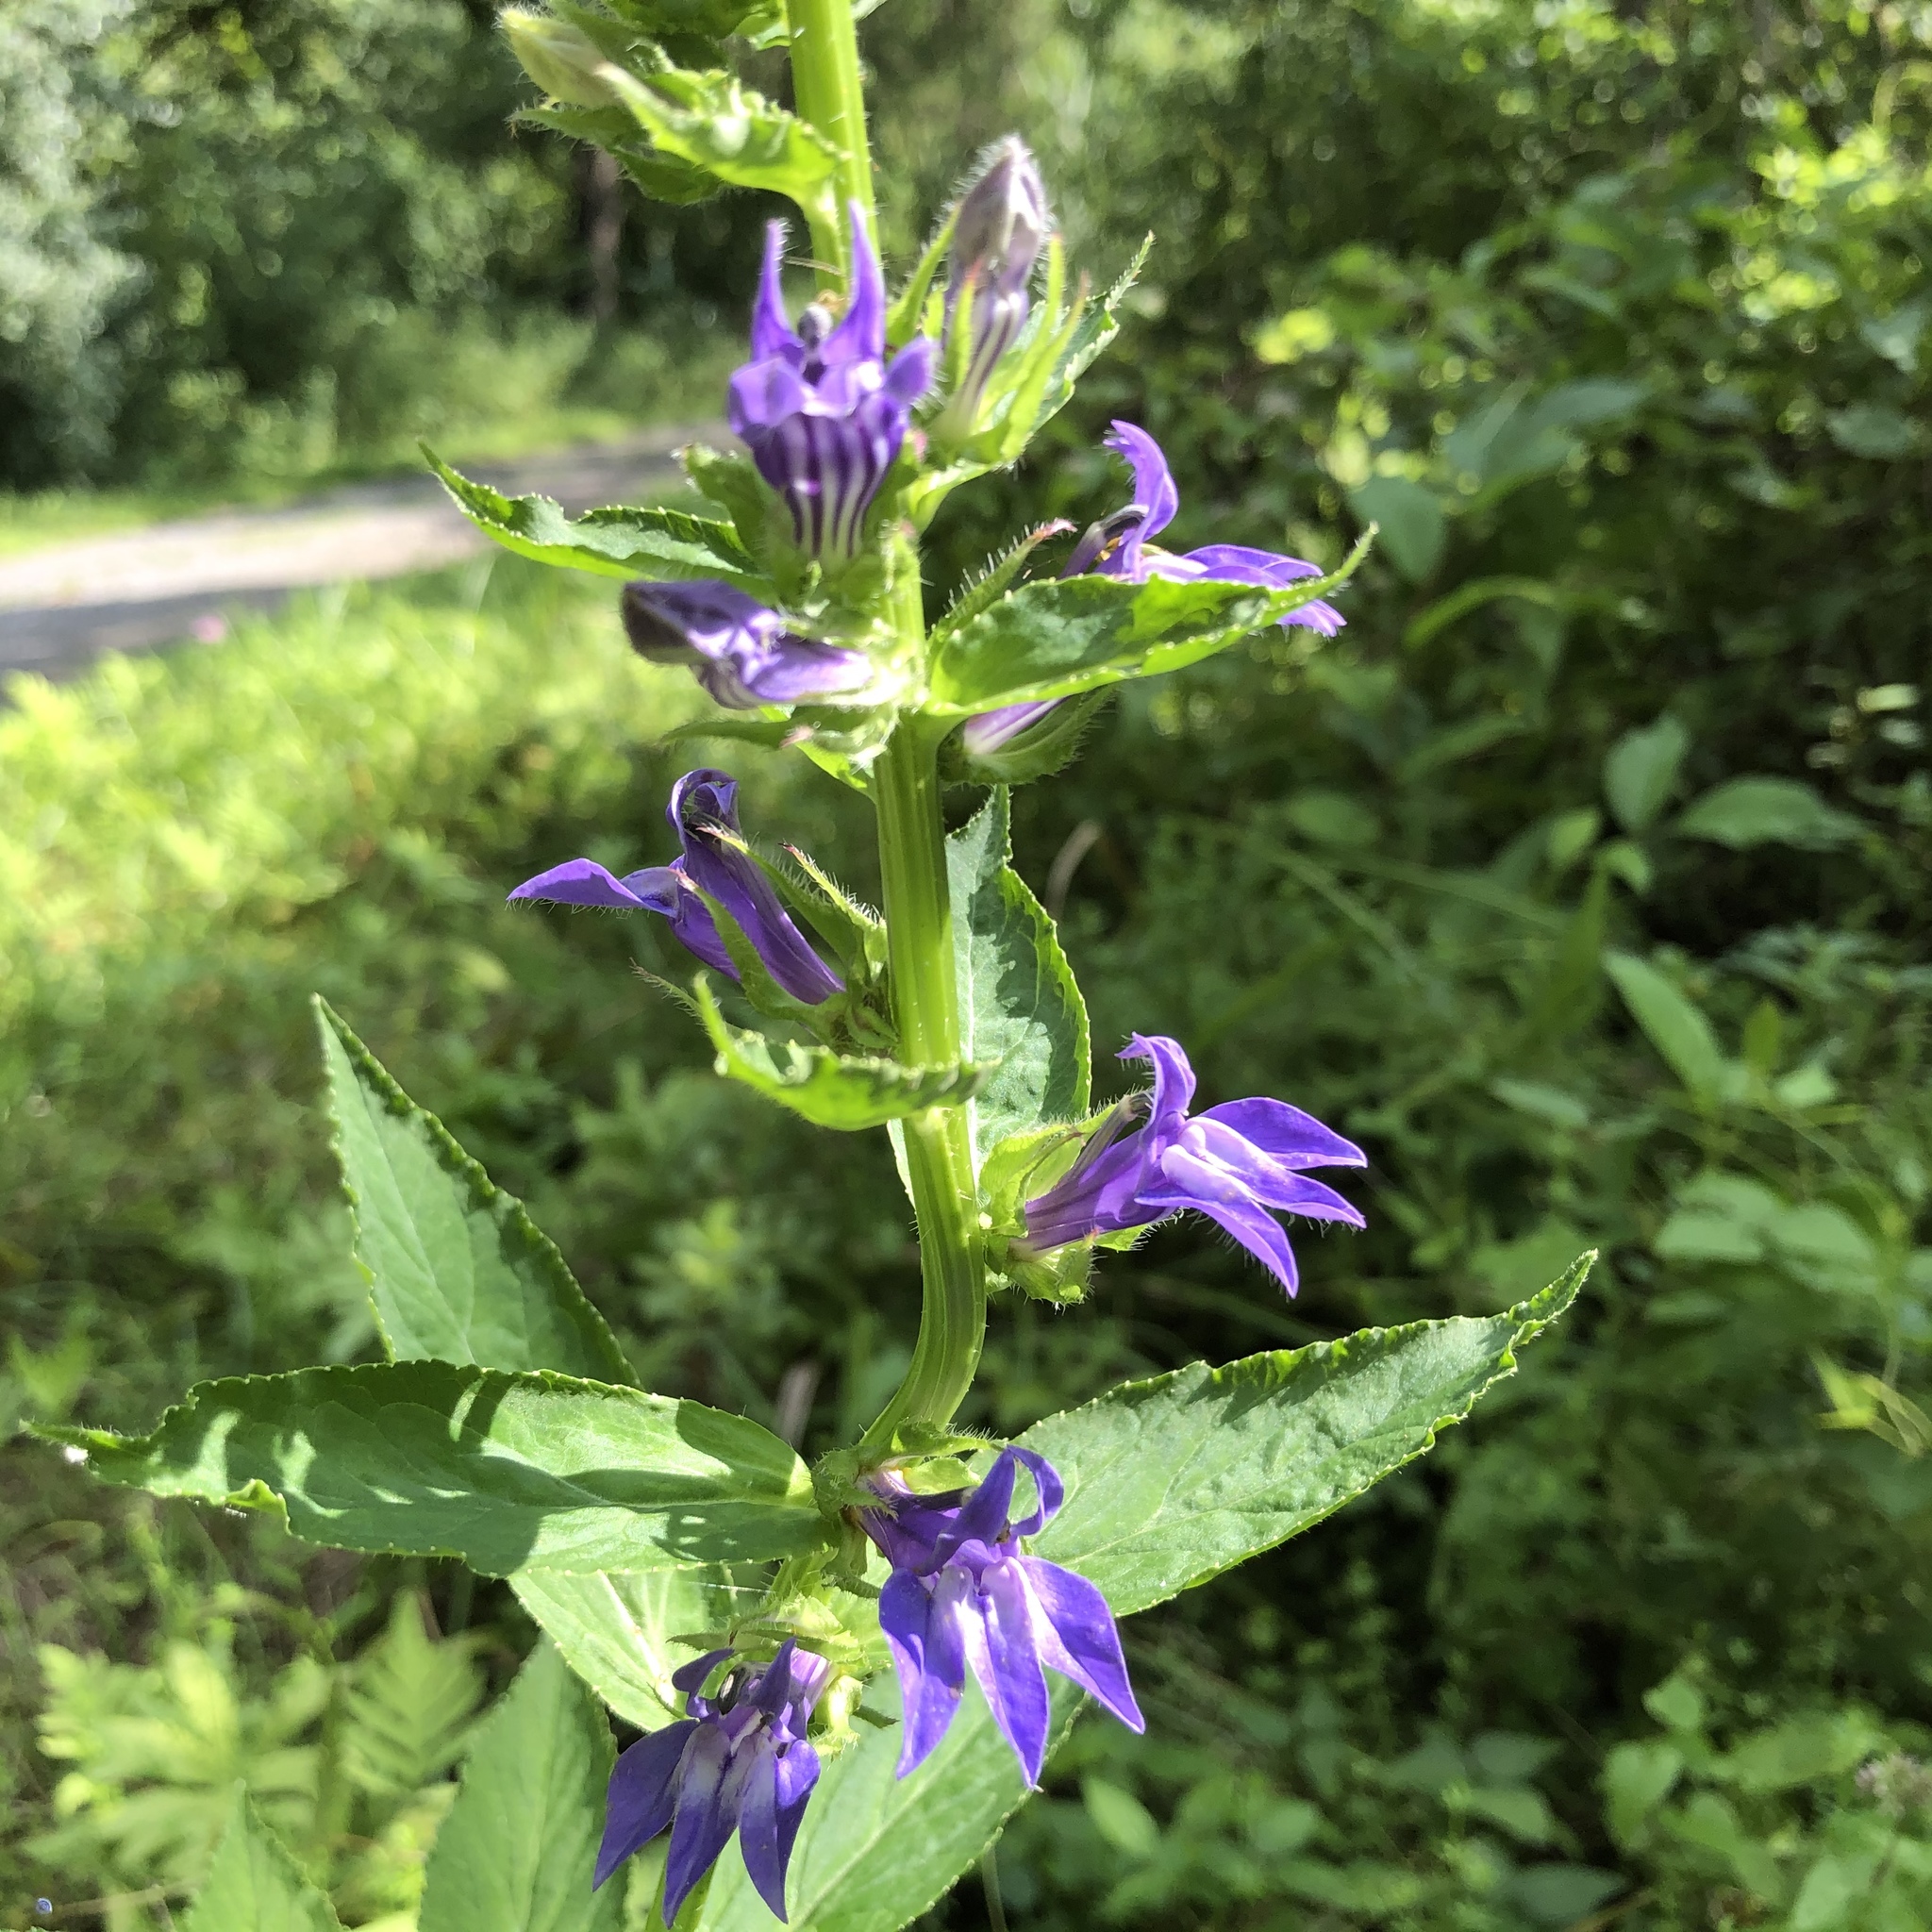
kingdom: Plantae
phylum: Tracheophyta
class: Magnoliopsida
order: Asterales
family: Campanulaceae
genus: Lobelia
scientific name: Lobelia siphilitica
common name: Great lobelia
